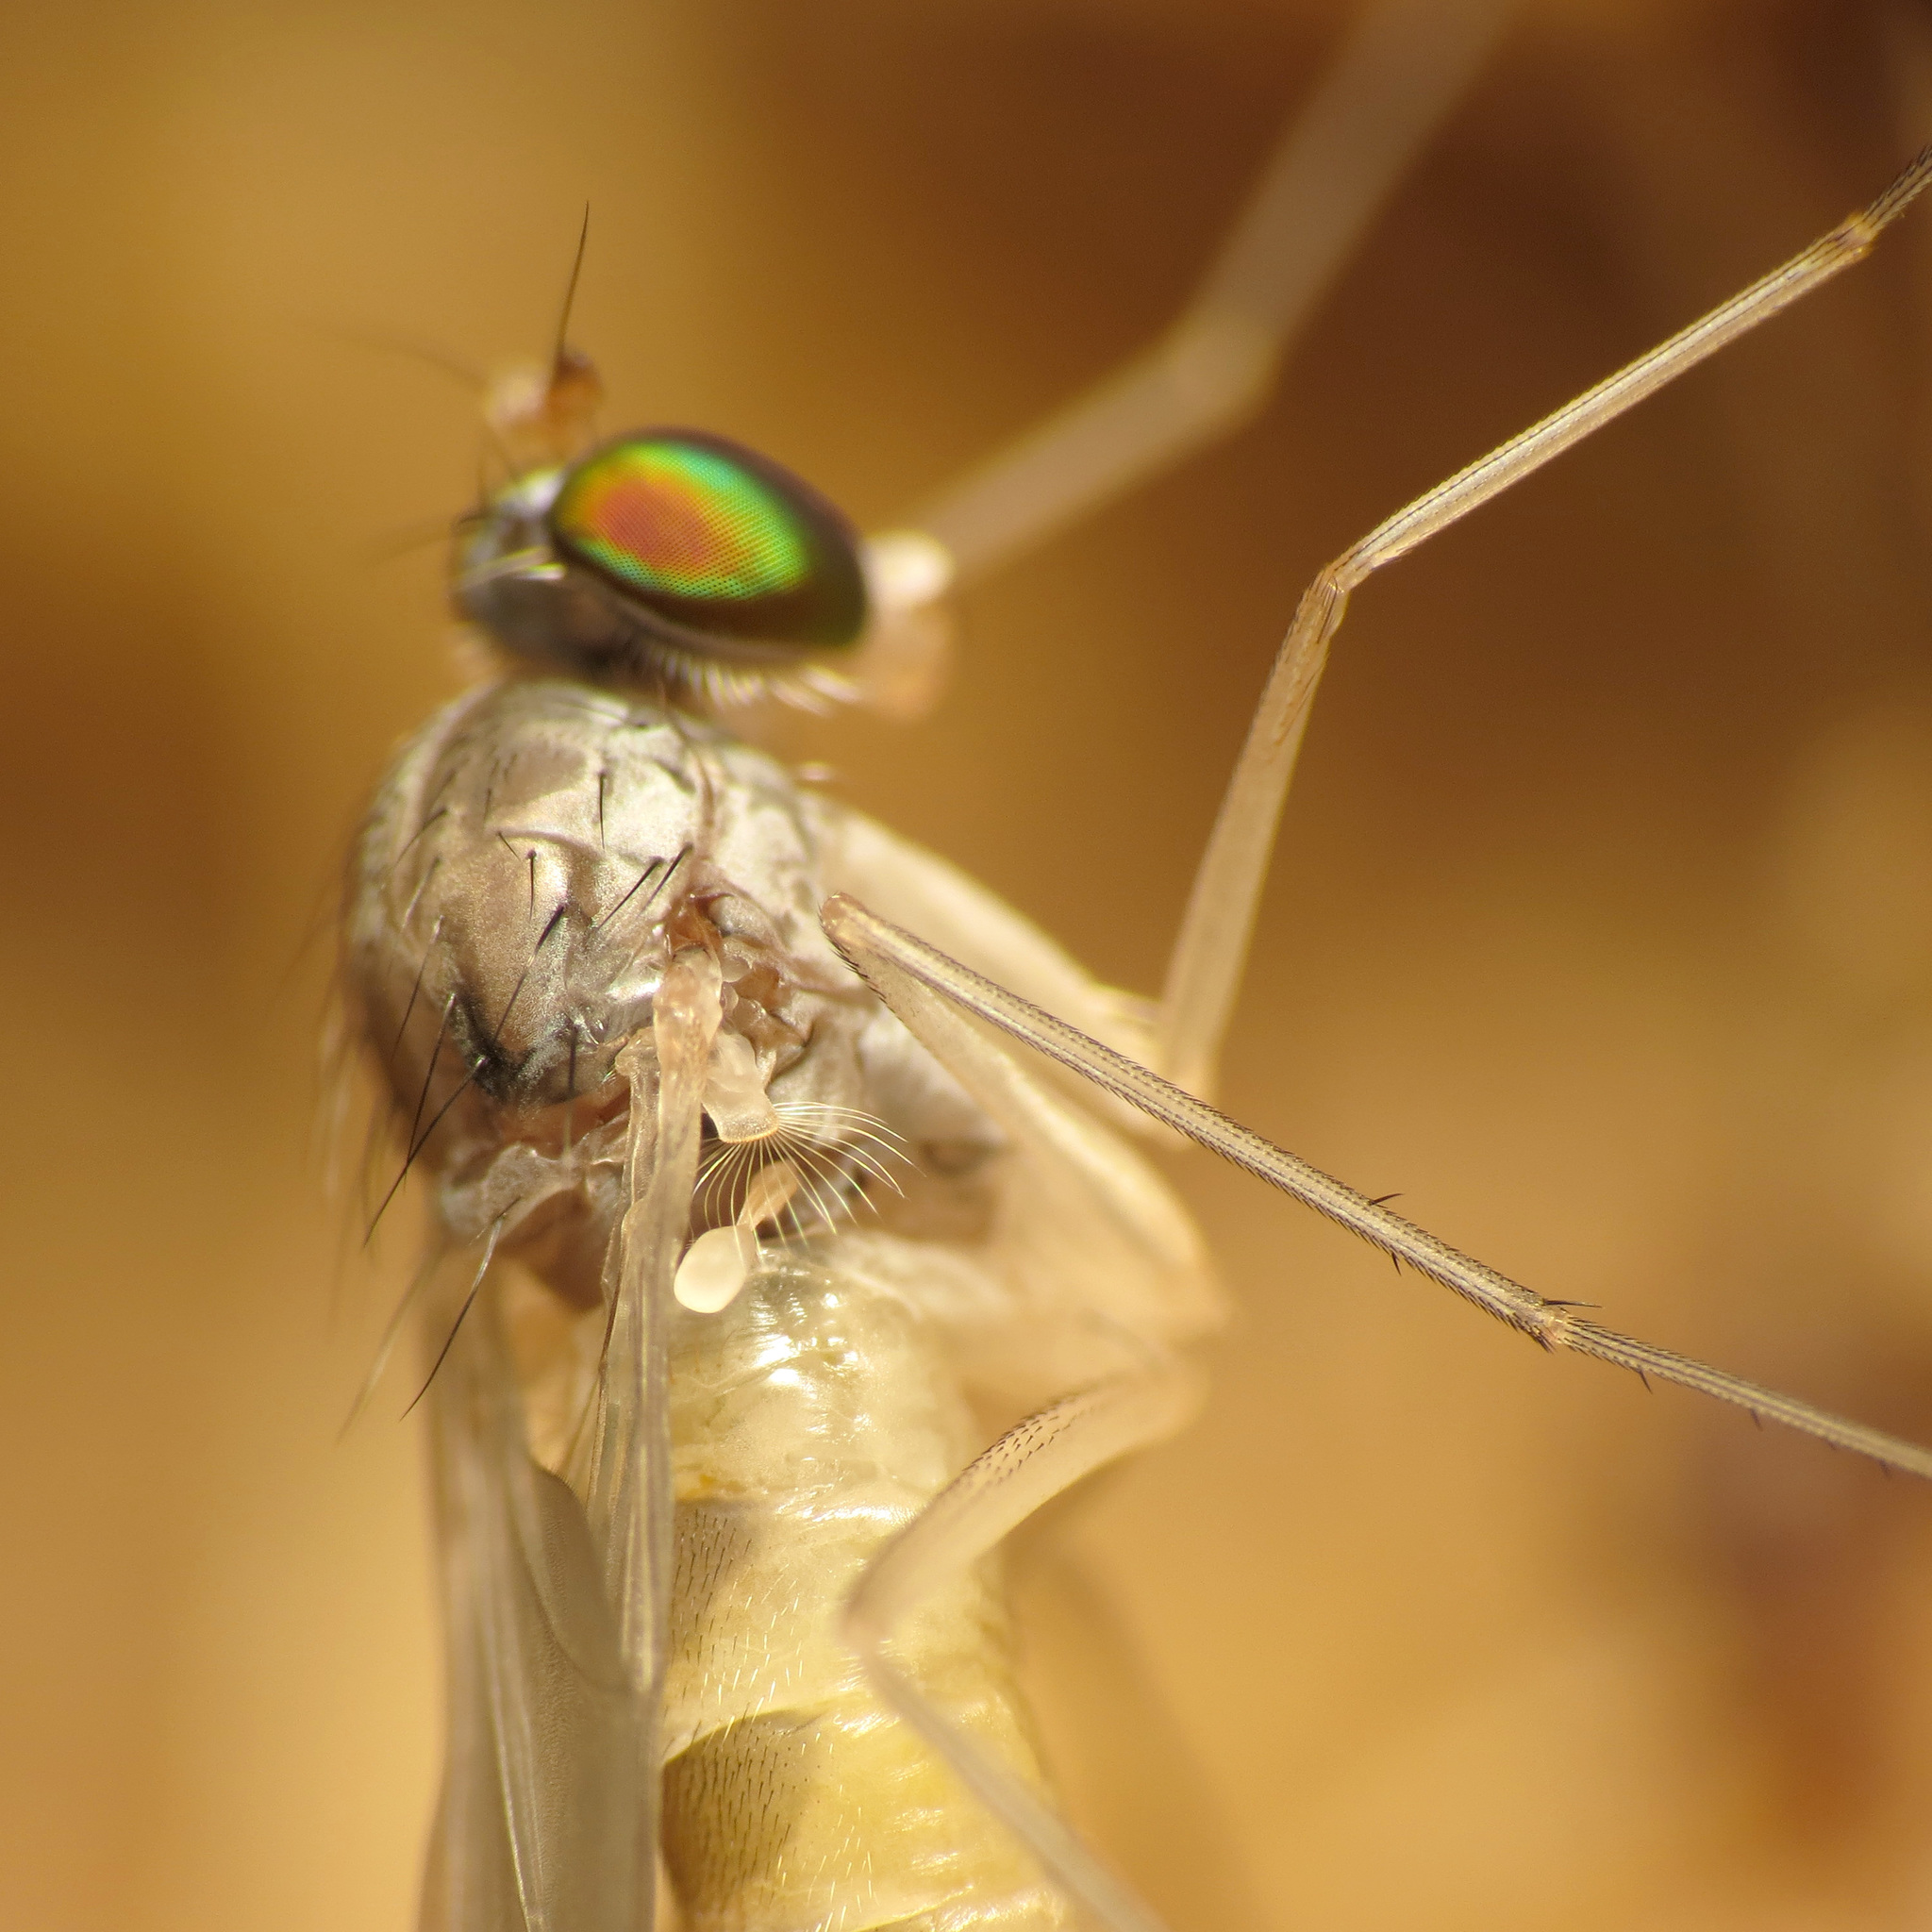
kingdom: Animalia
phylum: Arthropoda
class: Insecta
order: Diptera
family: Dolichopodidae
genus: Neurigona
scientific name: Neurigona deformis
